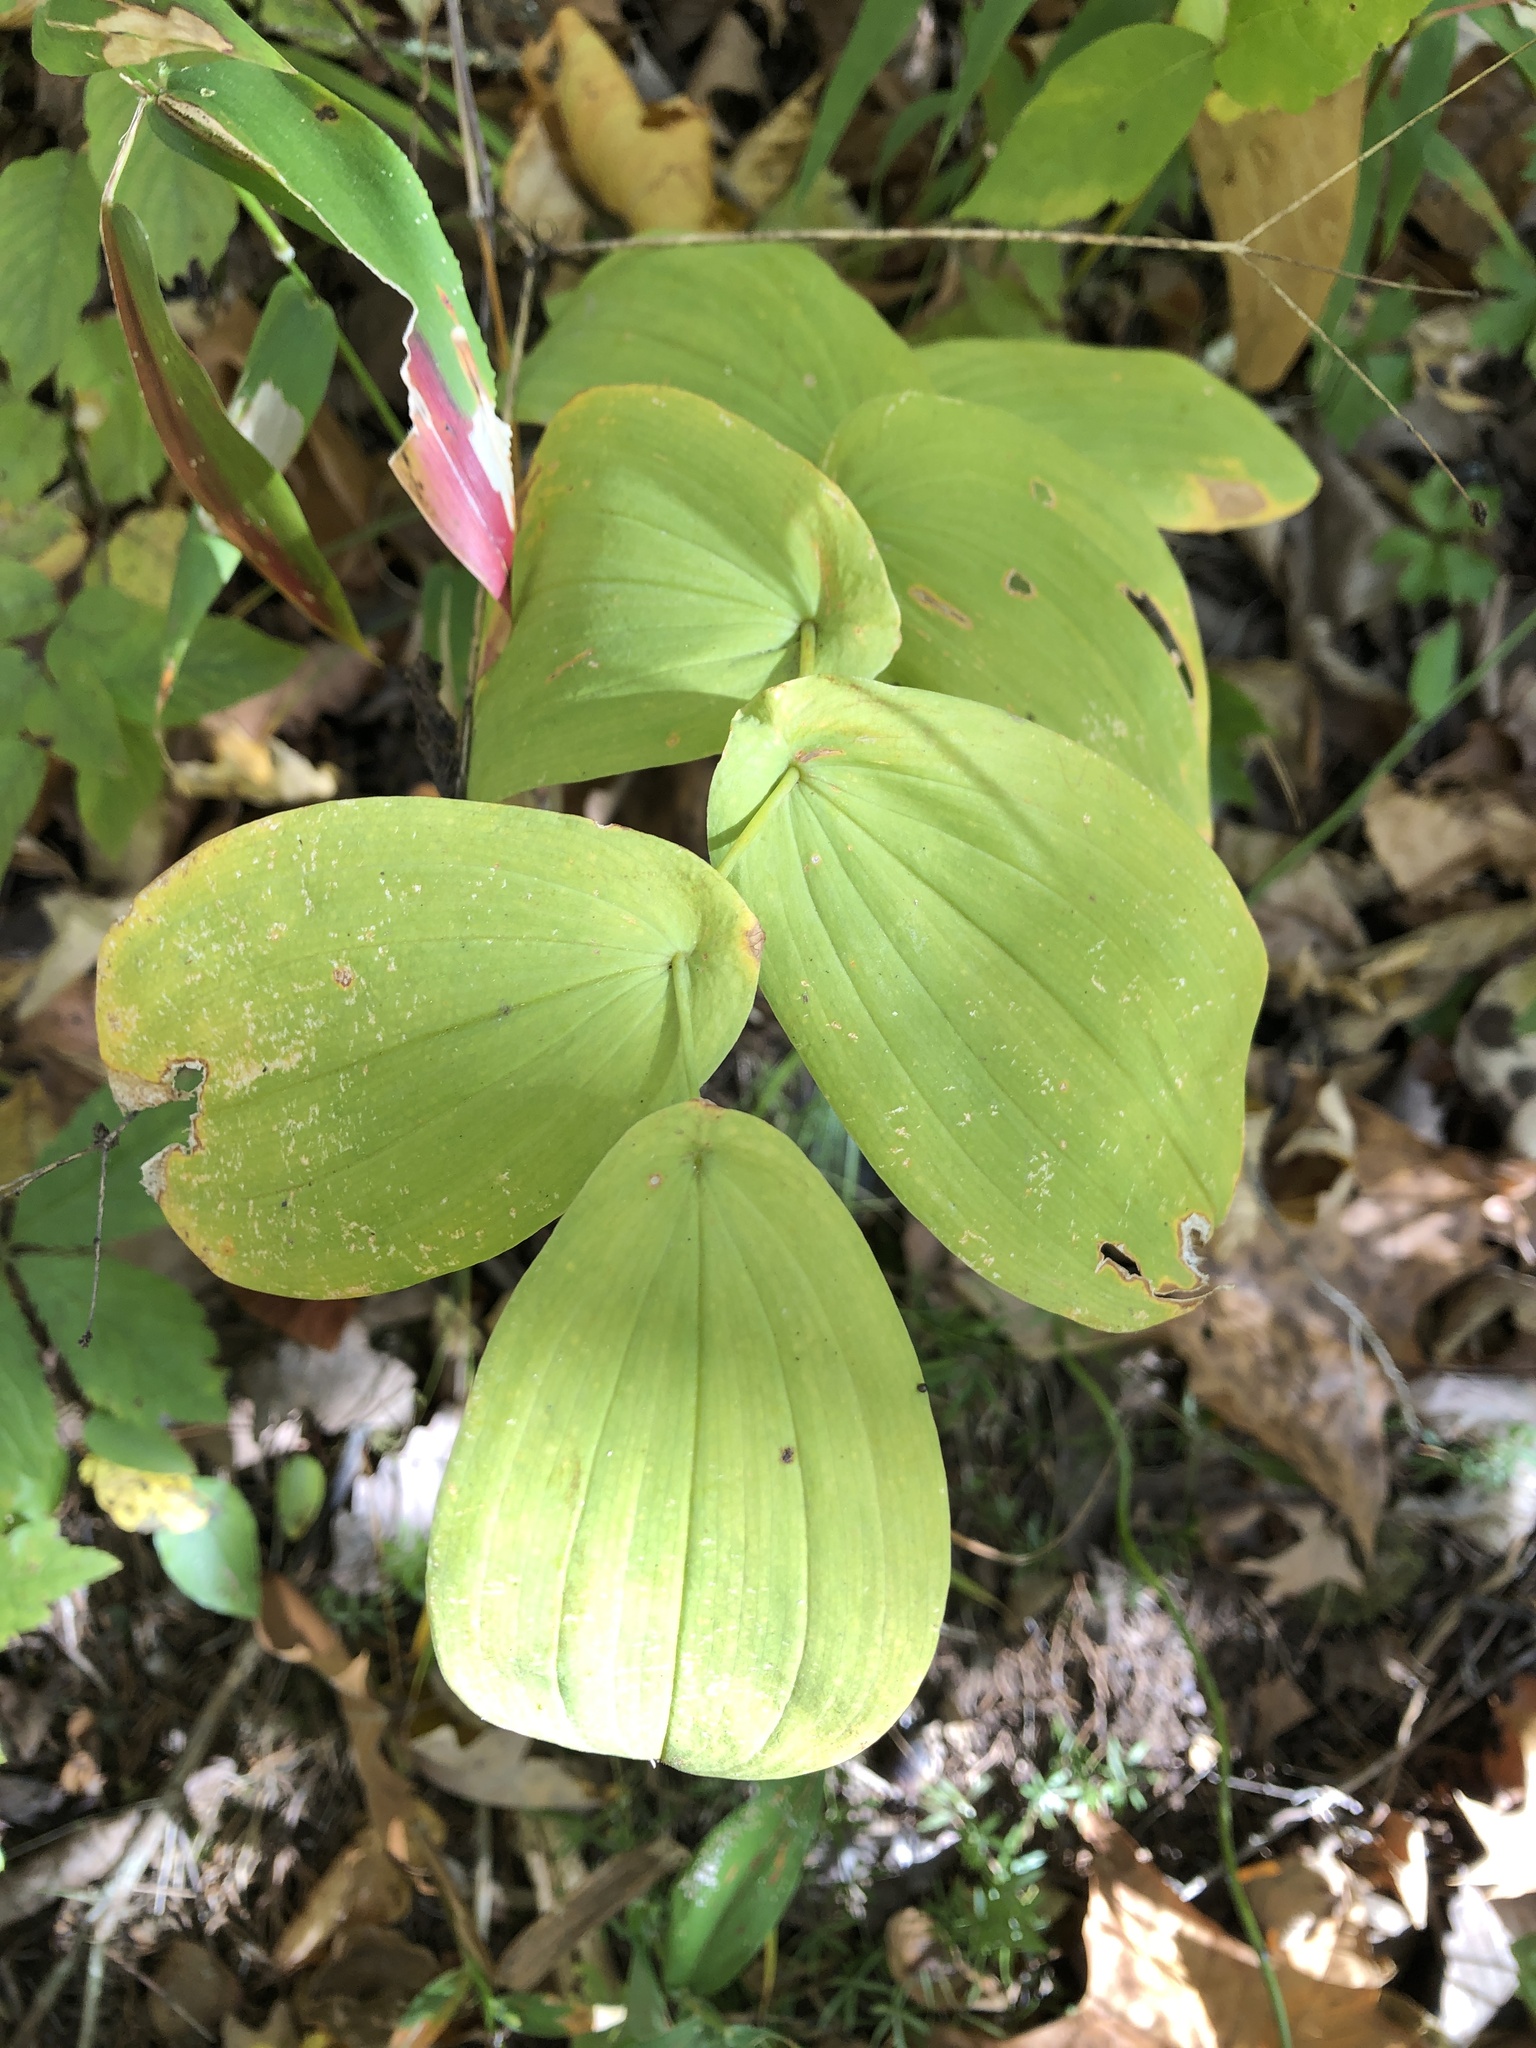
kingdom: Plantae
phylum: Tracheophyta
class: Liliopsida
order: Liliales
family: Colchicaceae
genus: Uvularia
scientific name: Uvularia grandiflora
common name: Bellwort
